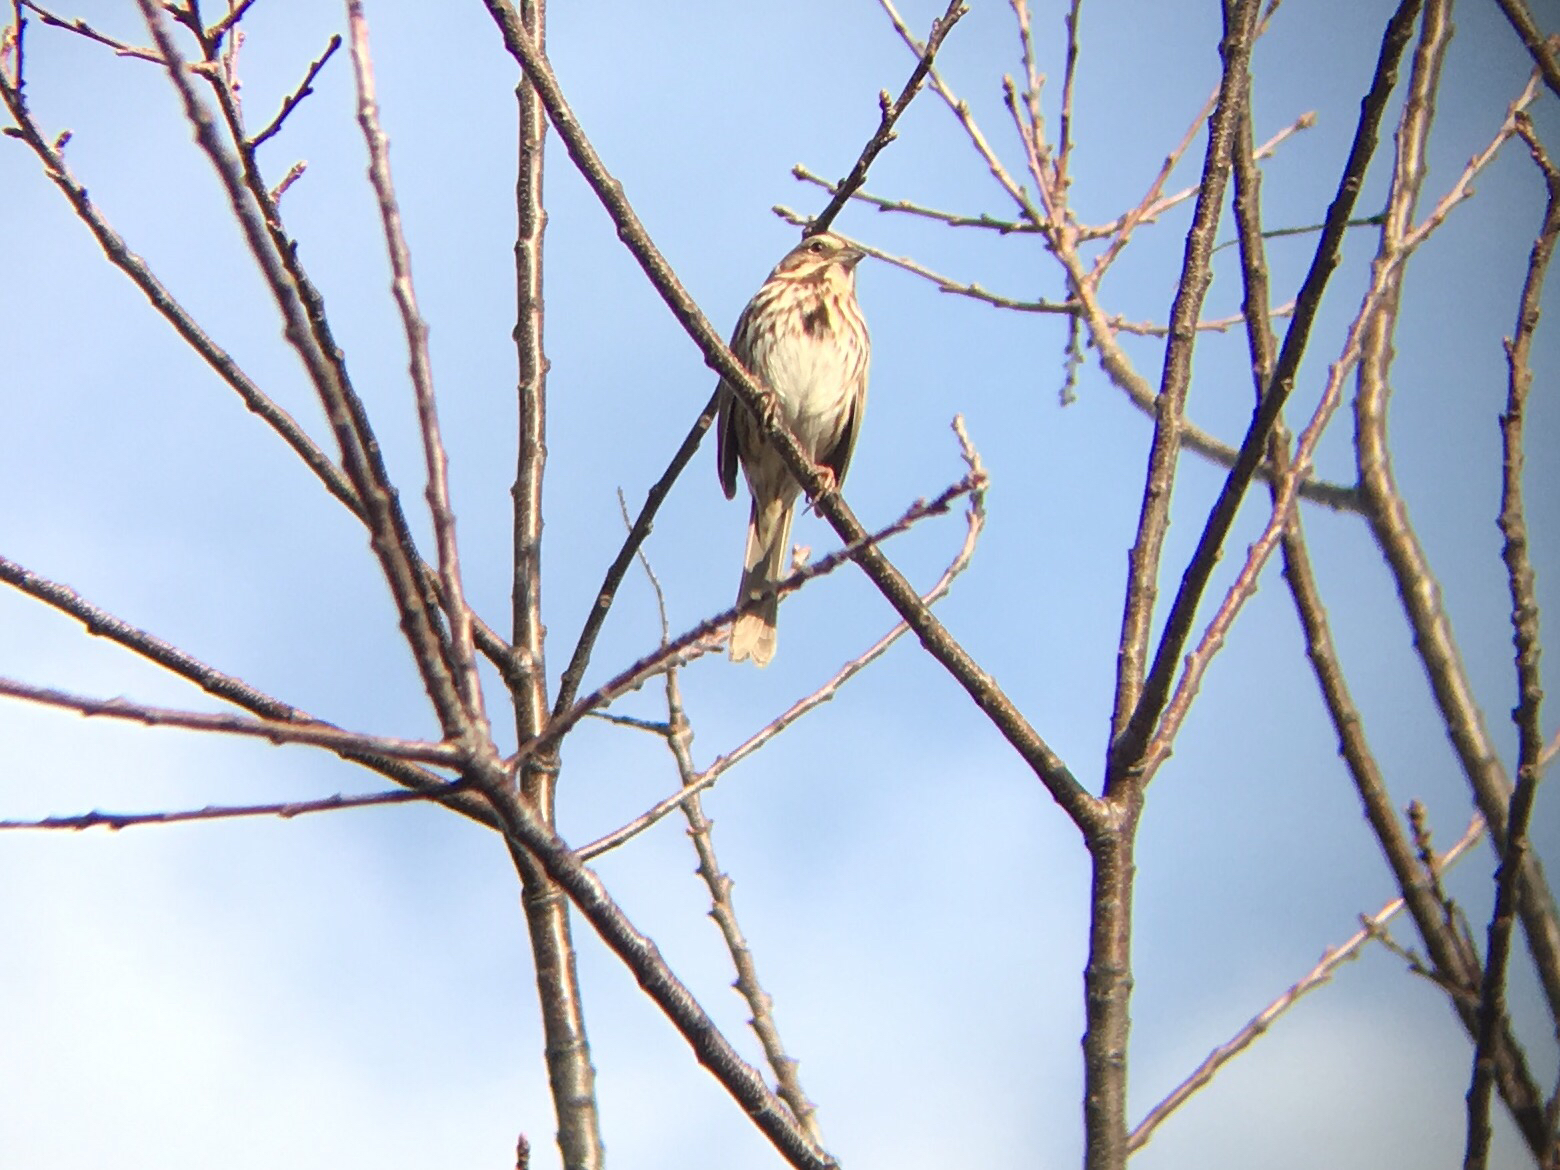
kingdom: Animalia
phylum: Chordata
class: Aves
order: Passeriformes
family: Passerellidae
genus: Melospiza
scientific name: Melospiza melodia
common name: Song sparrow
